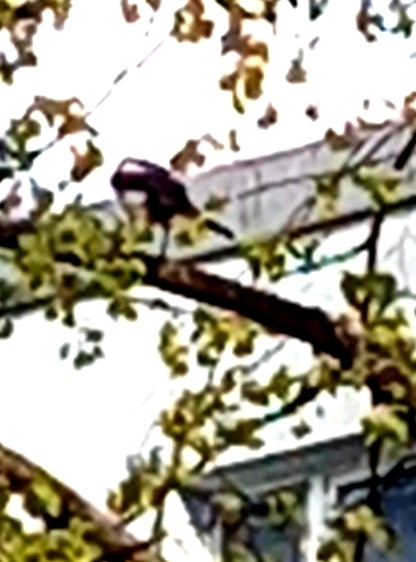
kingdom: Animalia
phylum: Chordata
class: Aves
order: Passeriformes
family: Corvidae
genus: Pica
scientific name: Pica pica
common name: Eurasian magpie
